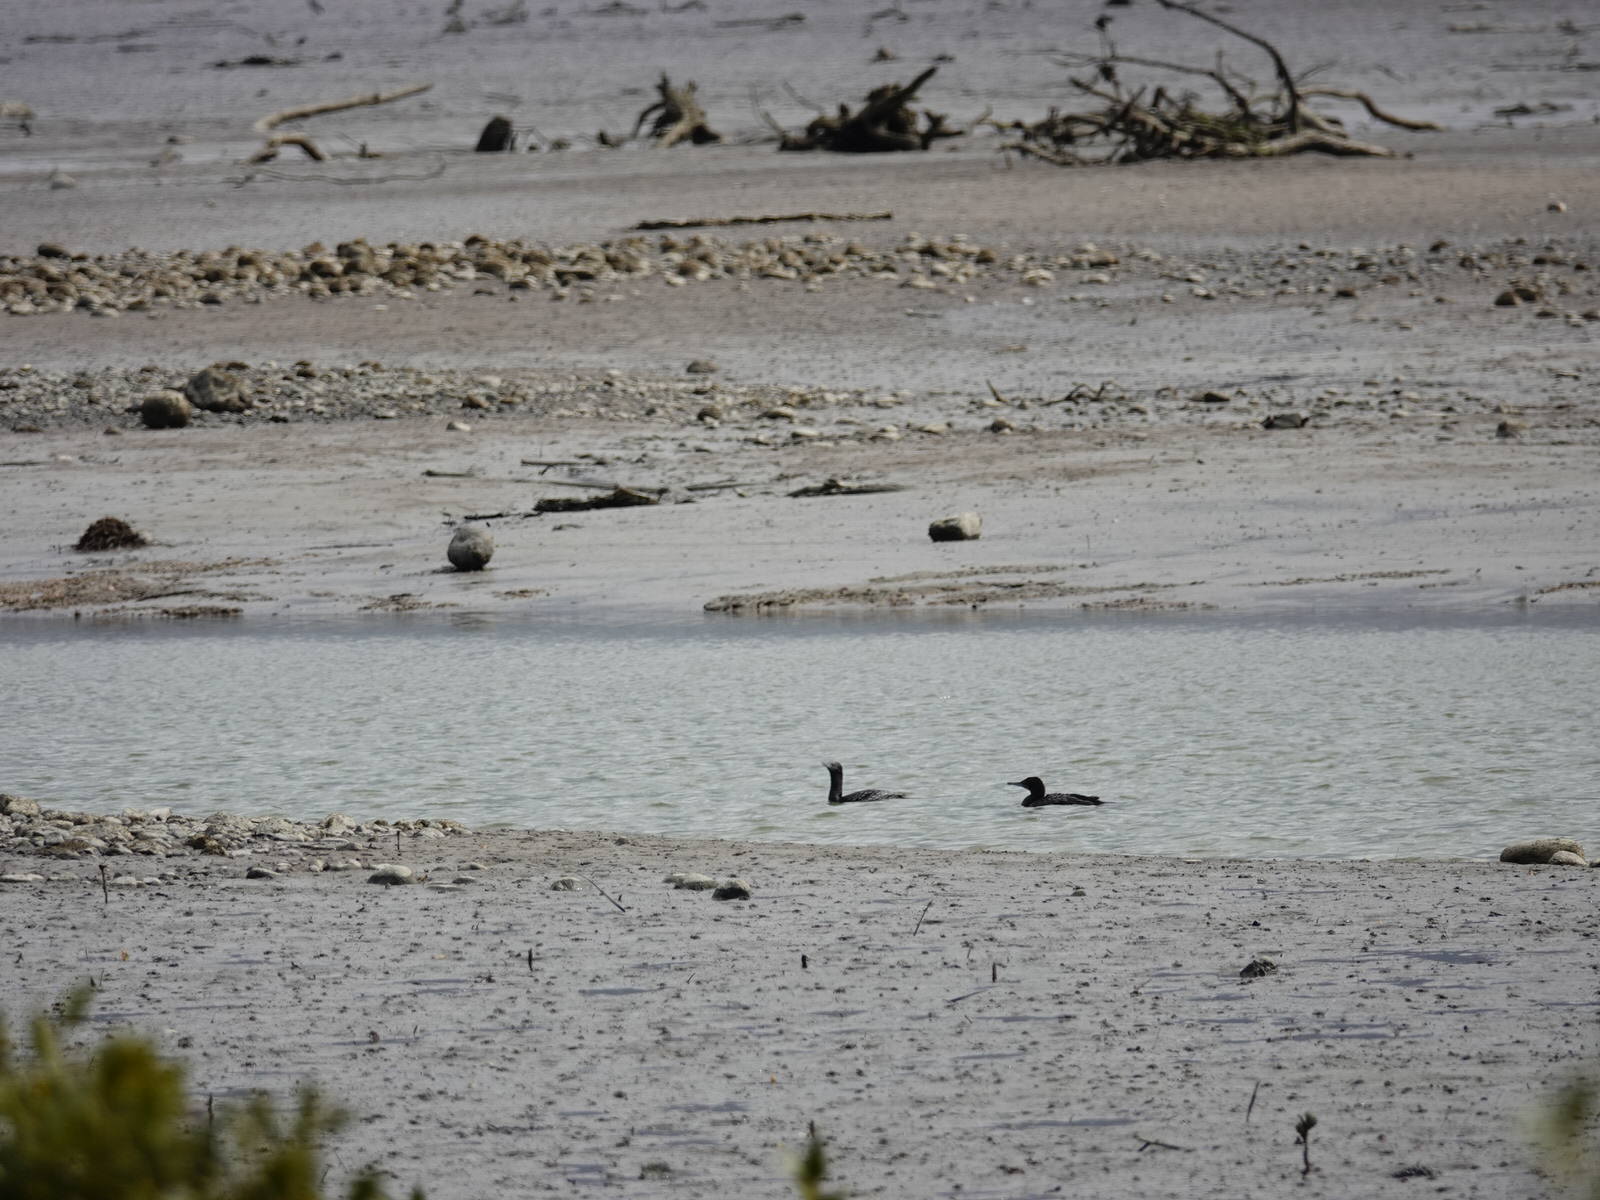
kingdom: Animalia
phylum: Chordata
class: Aves
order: Suliformes
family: Phalacrocoracidae
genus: Phalacrocorax
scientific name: Phalacrocorax sulcirostris
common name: Little black cormorant
